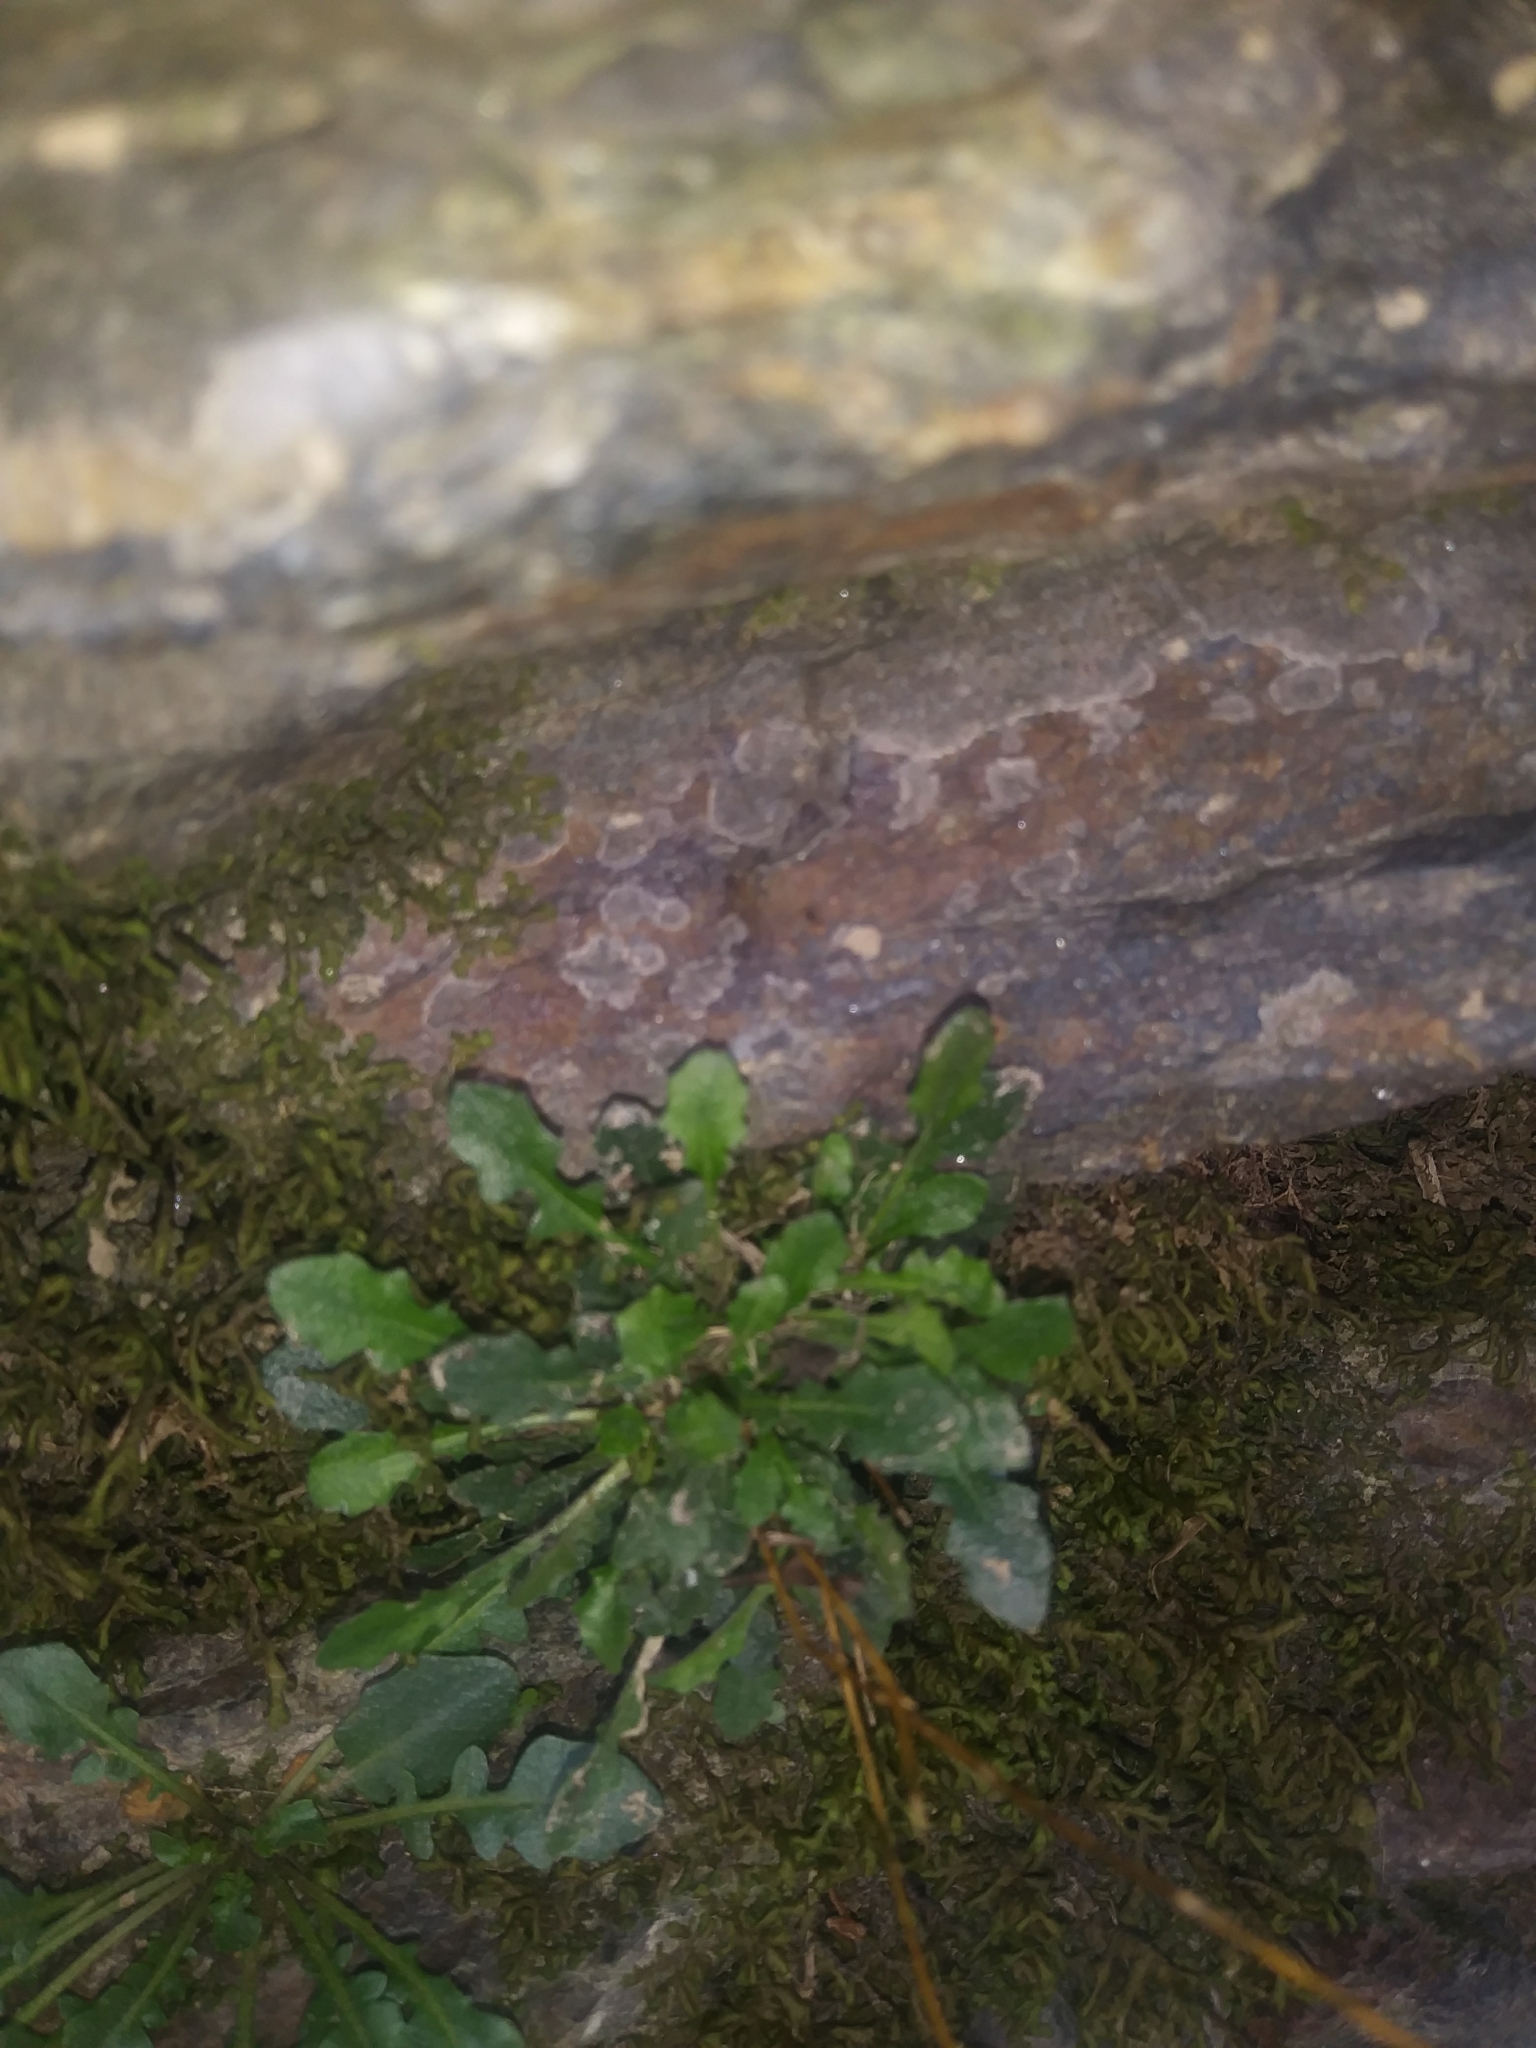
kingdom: Plantae
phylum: Tracheophyta
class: Magnoliopsida
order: Brassicales
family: Brassicaceae
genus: Arabidopsis
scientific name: Arabidopsis lyrata
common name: Lyrate rockcress
